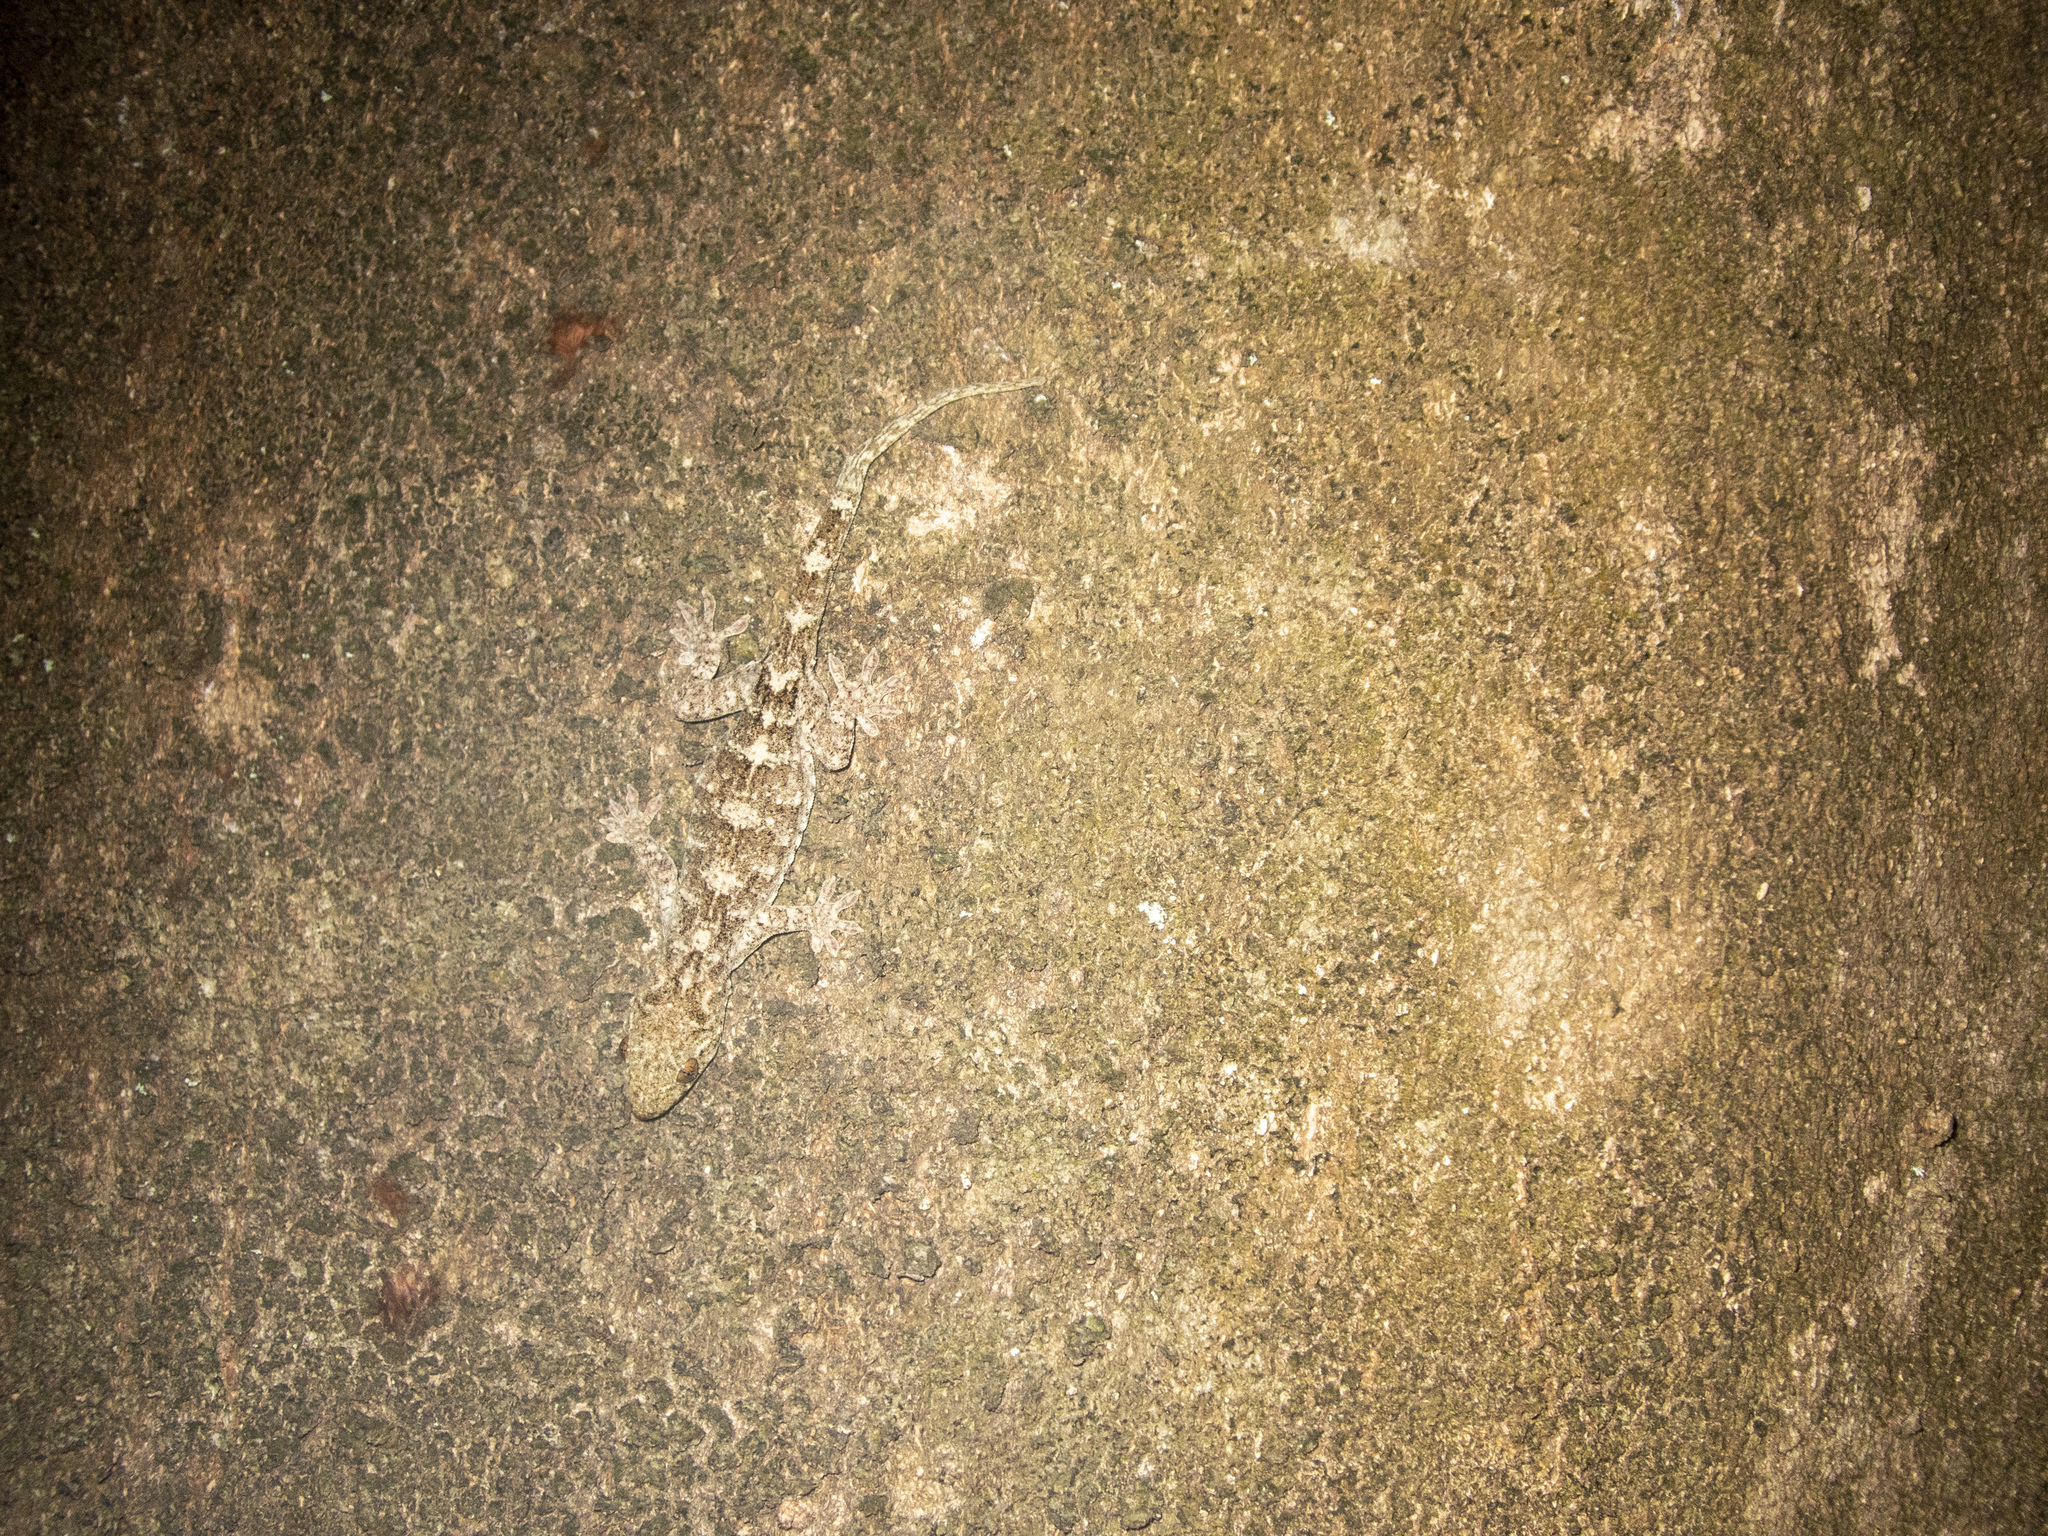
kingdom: Animalia
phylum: Chordata
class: Squamata
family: Gekkonidae
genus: Gekko
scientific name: Gekko chinensis
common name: Gray's chinese gecko
